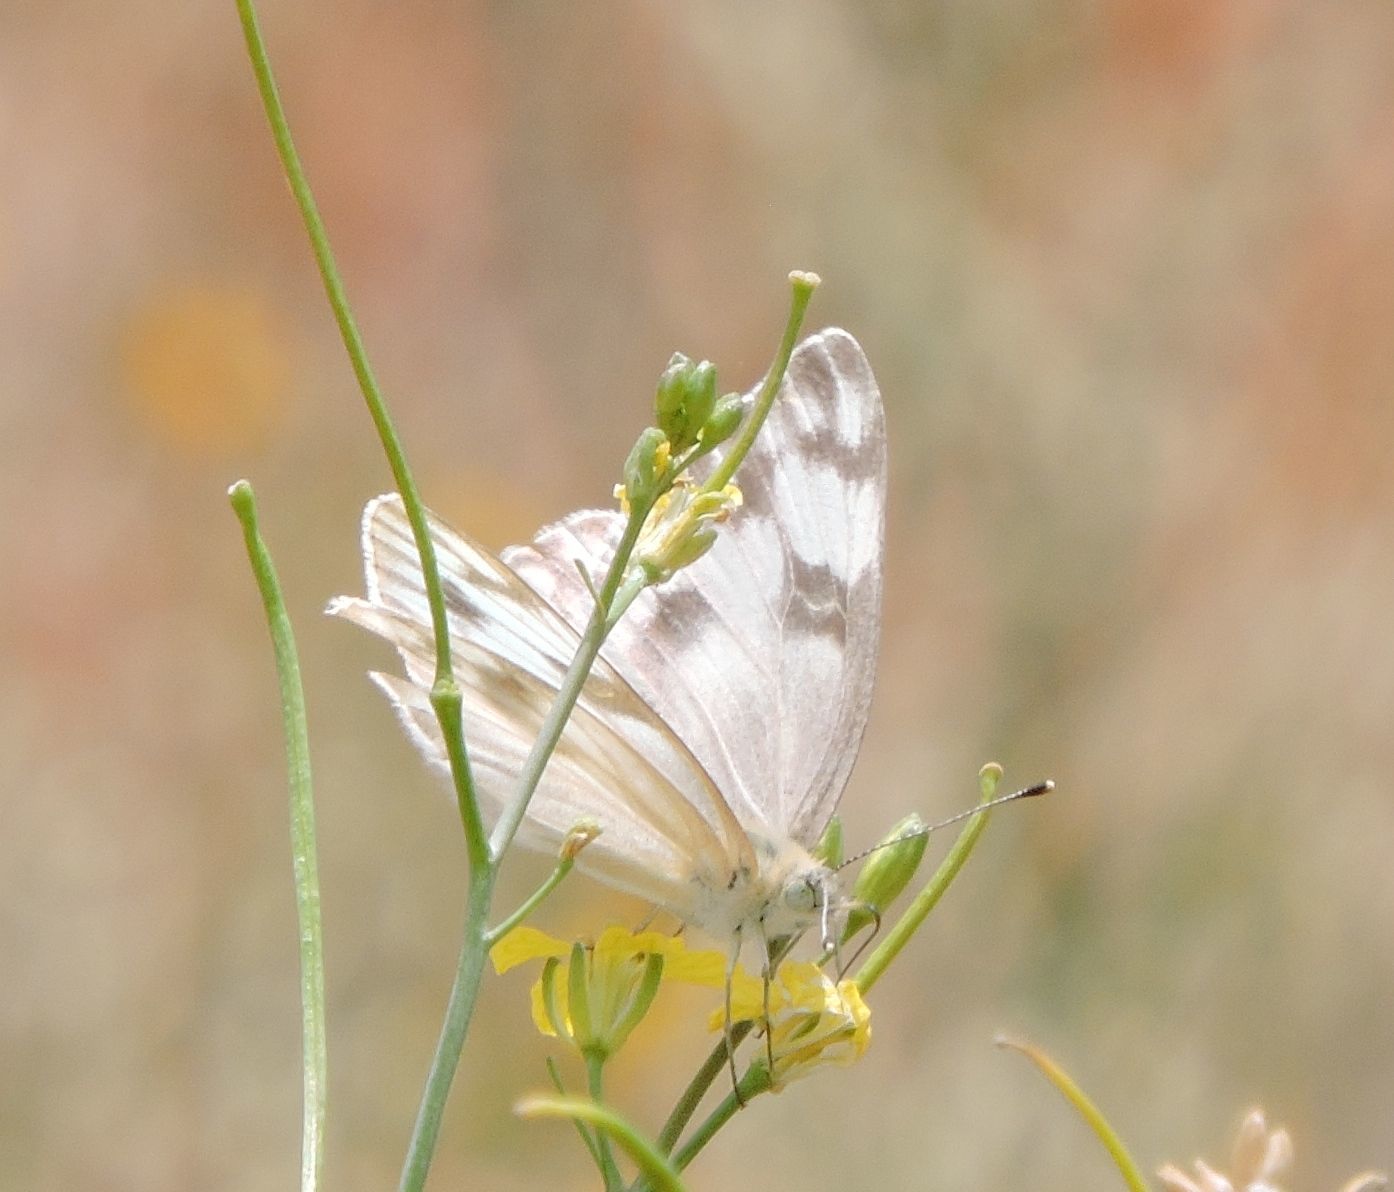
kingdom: Animalia
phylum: Arthropoda
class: Insecta
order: Lepidoptera
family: Pieridae
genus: Pontia
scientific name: Pontia protodice
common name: Checkered white
